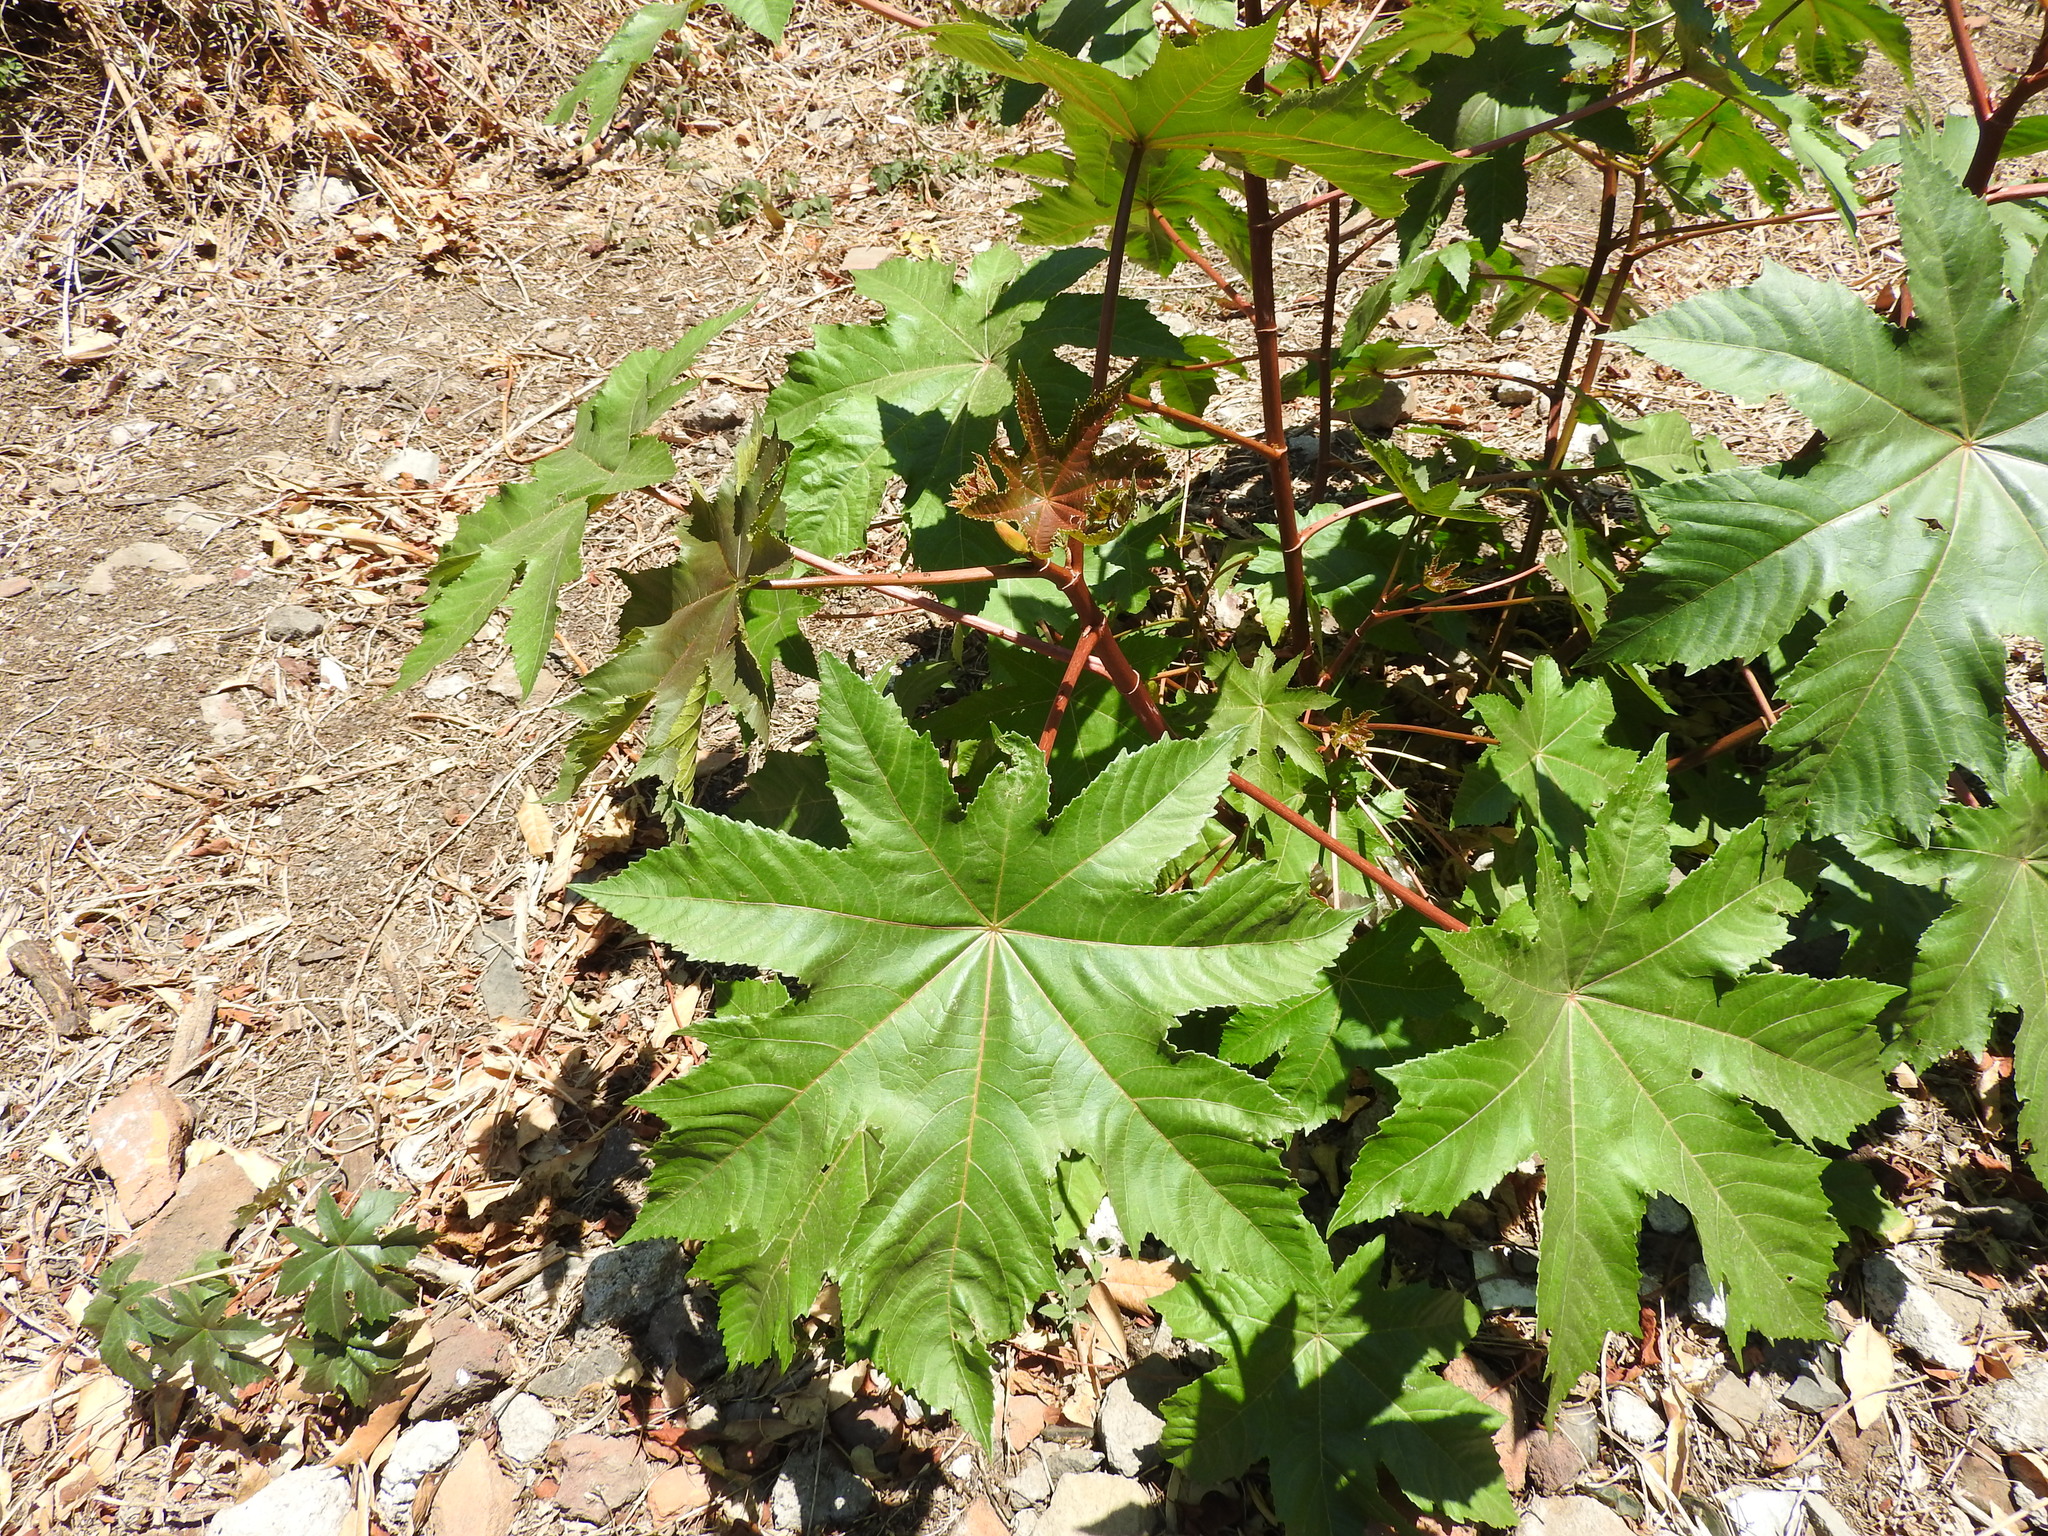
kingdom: Plantae
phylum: Tracheophyta
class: Magnoliopsida
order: Malpighiales
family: Euphorbiaceae
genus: Ricinus
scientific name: Ricinus communis
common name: Castor-oil-plant
